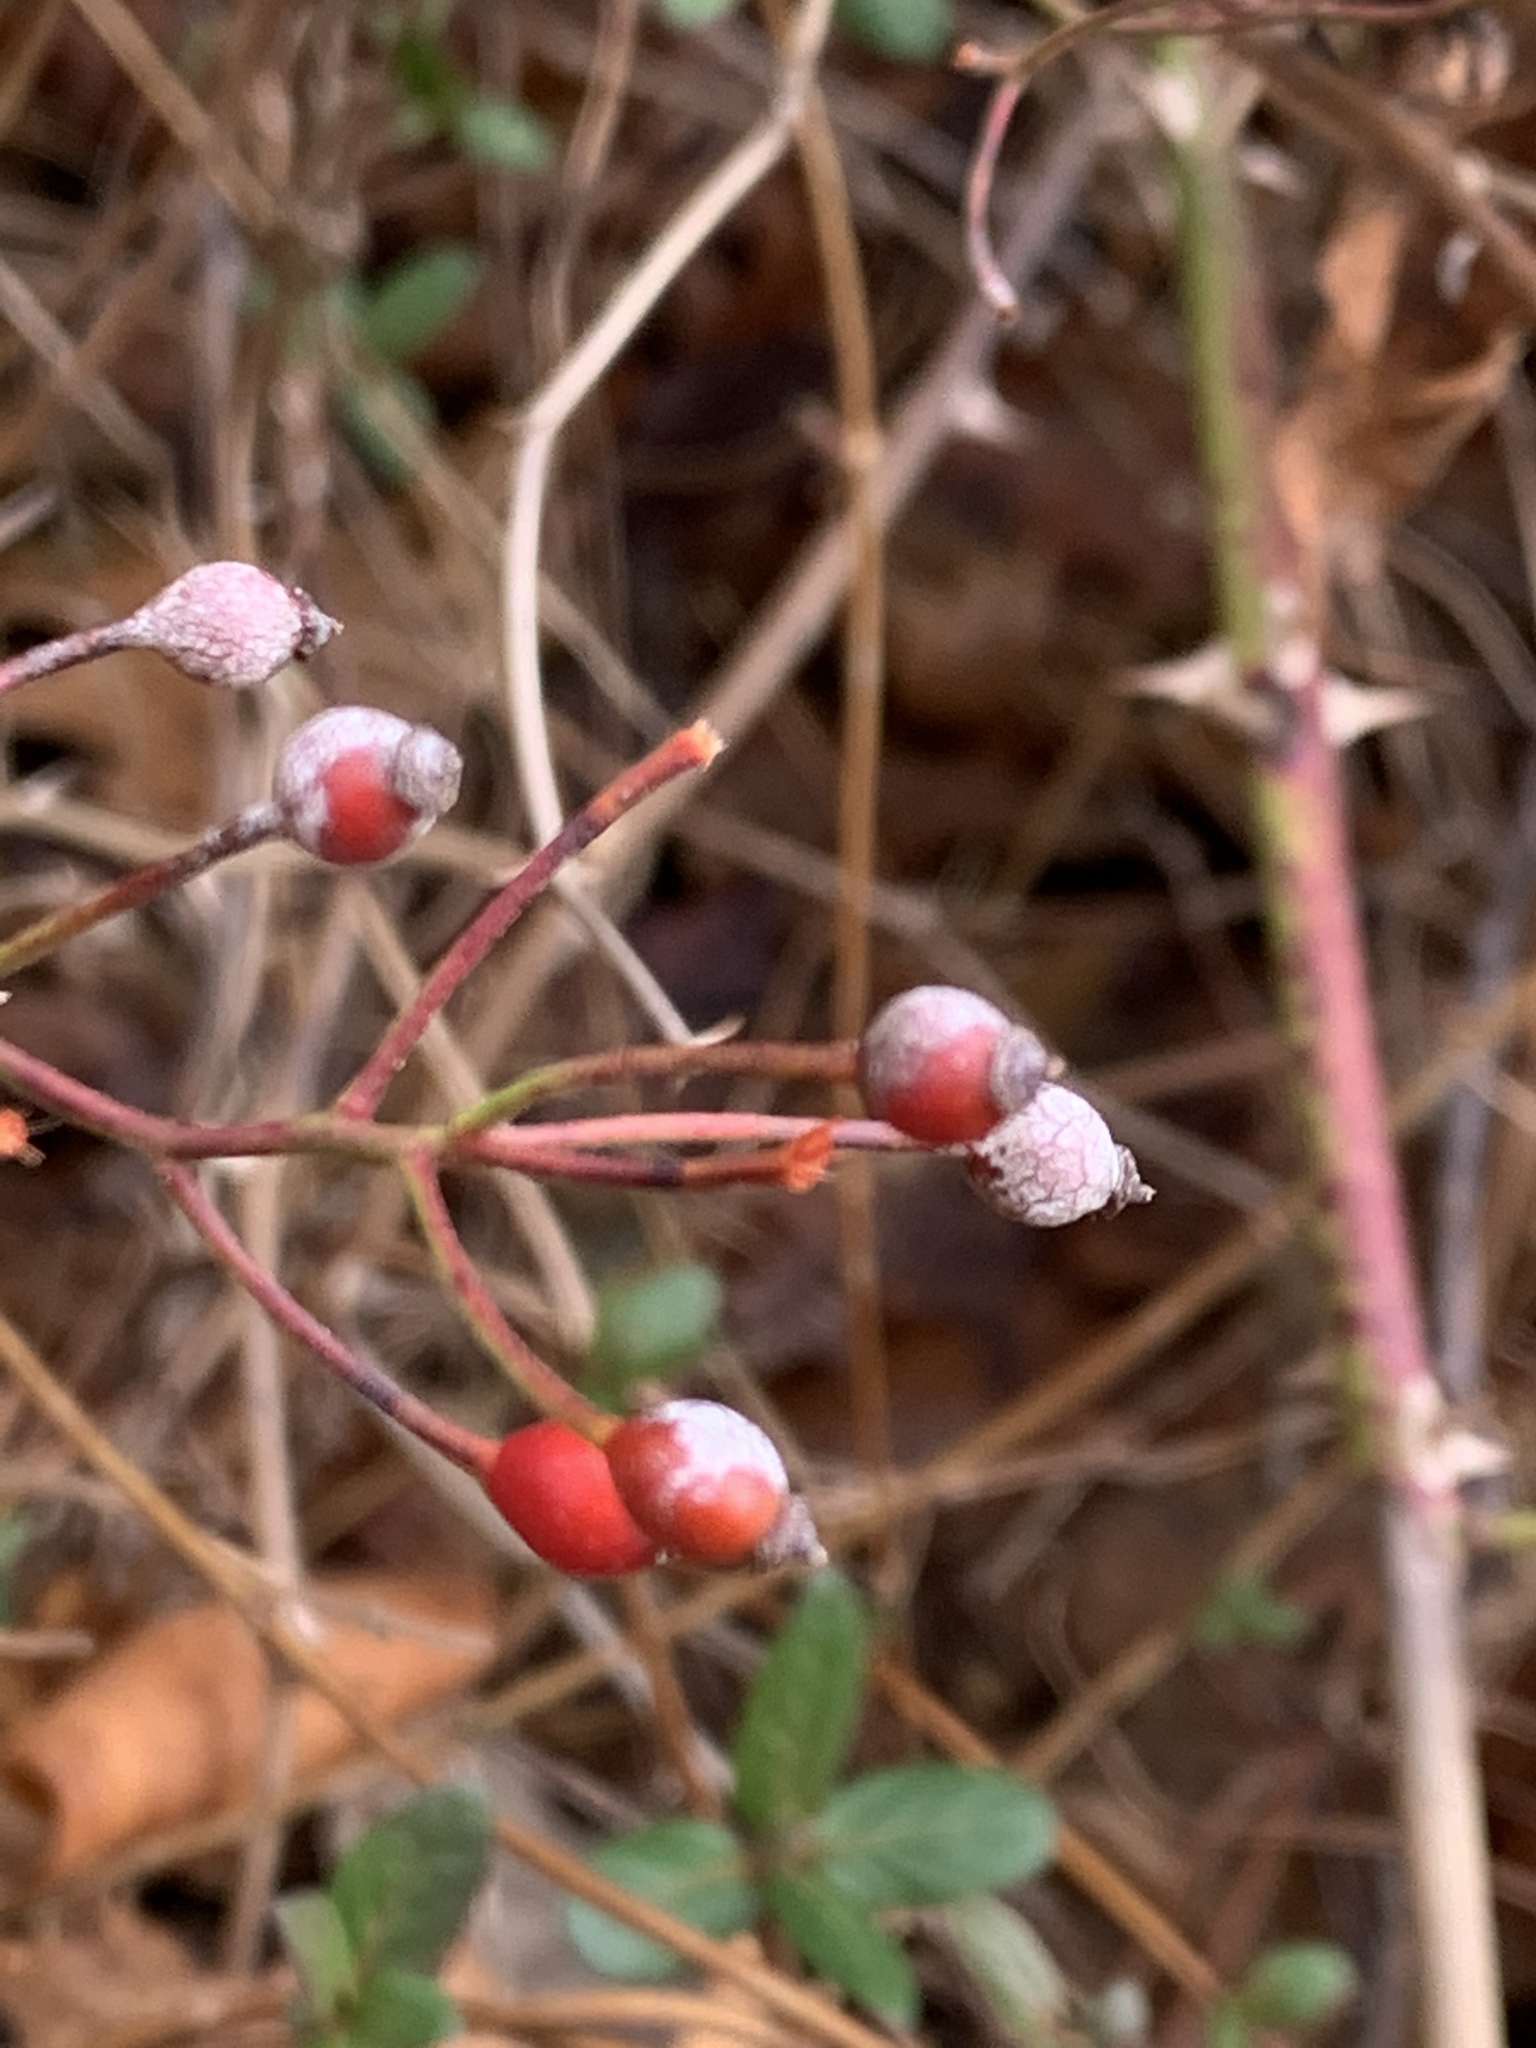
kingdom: Plantae
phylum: Tracheophyta
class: Magnoliopsida
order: Rosales
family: Rosaceae
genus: Rosa
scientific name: Rosa multiflora
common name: Multiflora rose
